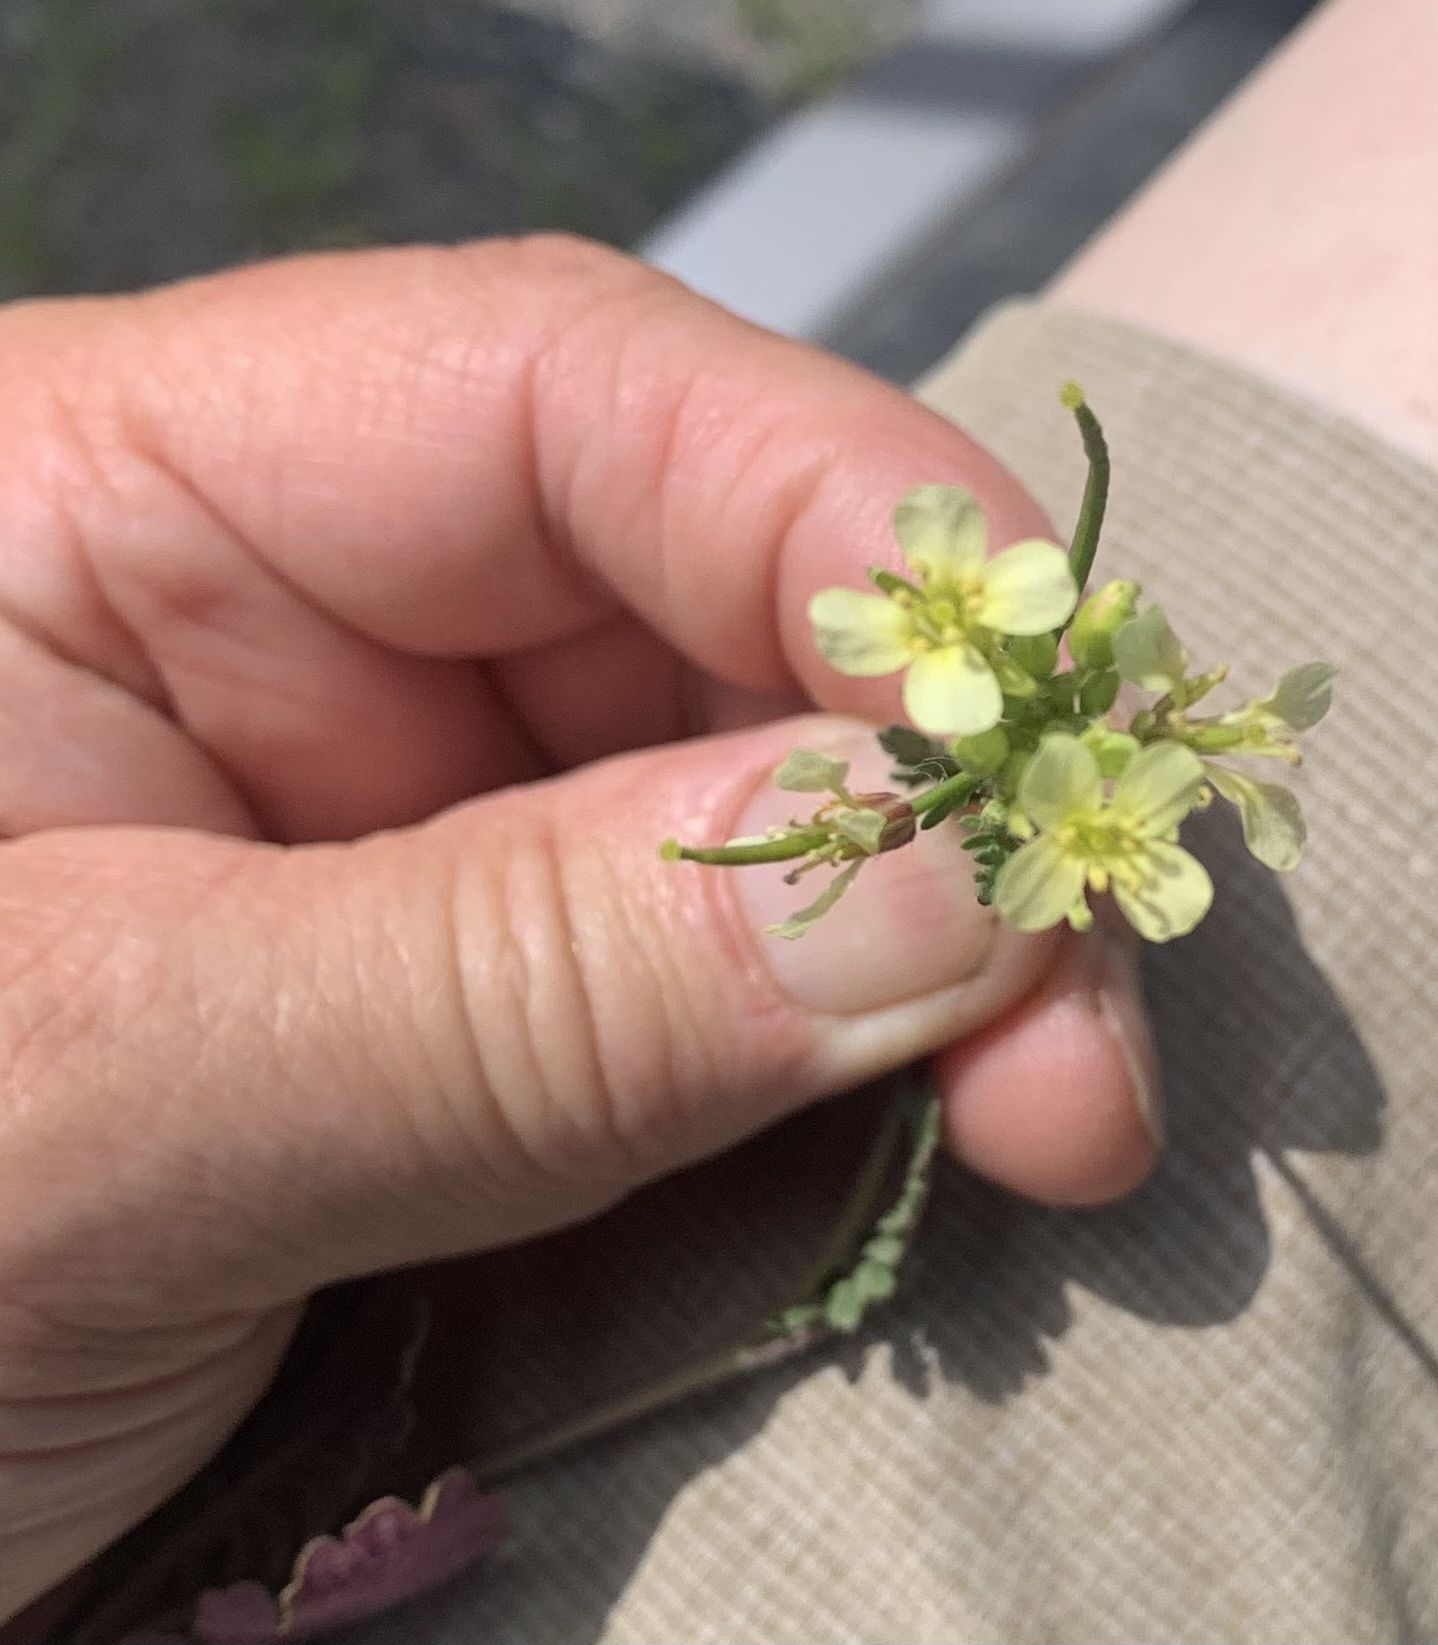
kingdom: Plantae
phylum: Tracheophyta
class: Magnoliopsida
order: Brassicales
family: Brassicaceae
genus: Erucastrum
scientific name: Erucastrum gallicum
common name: Hairy rocket
